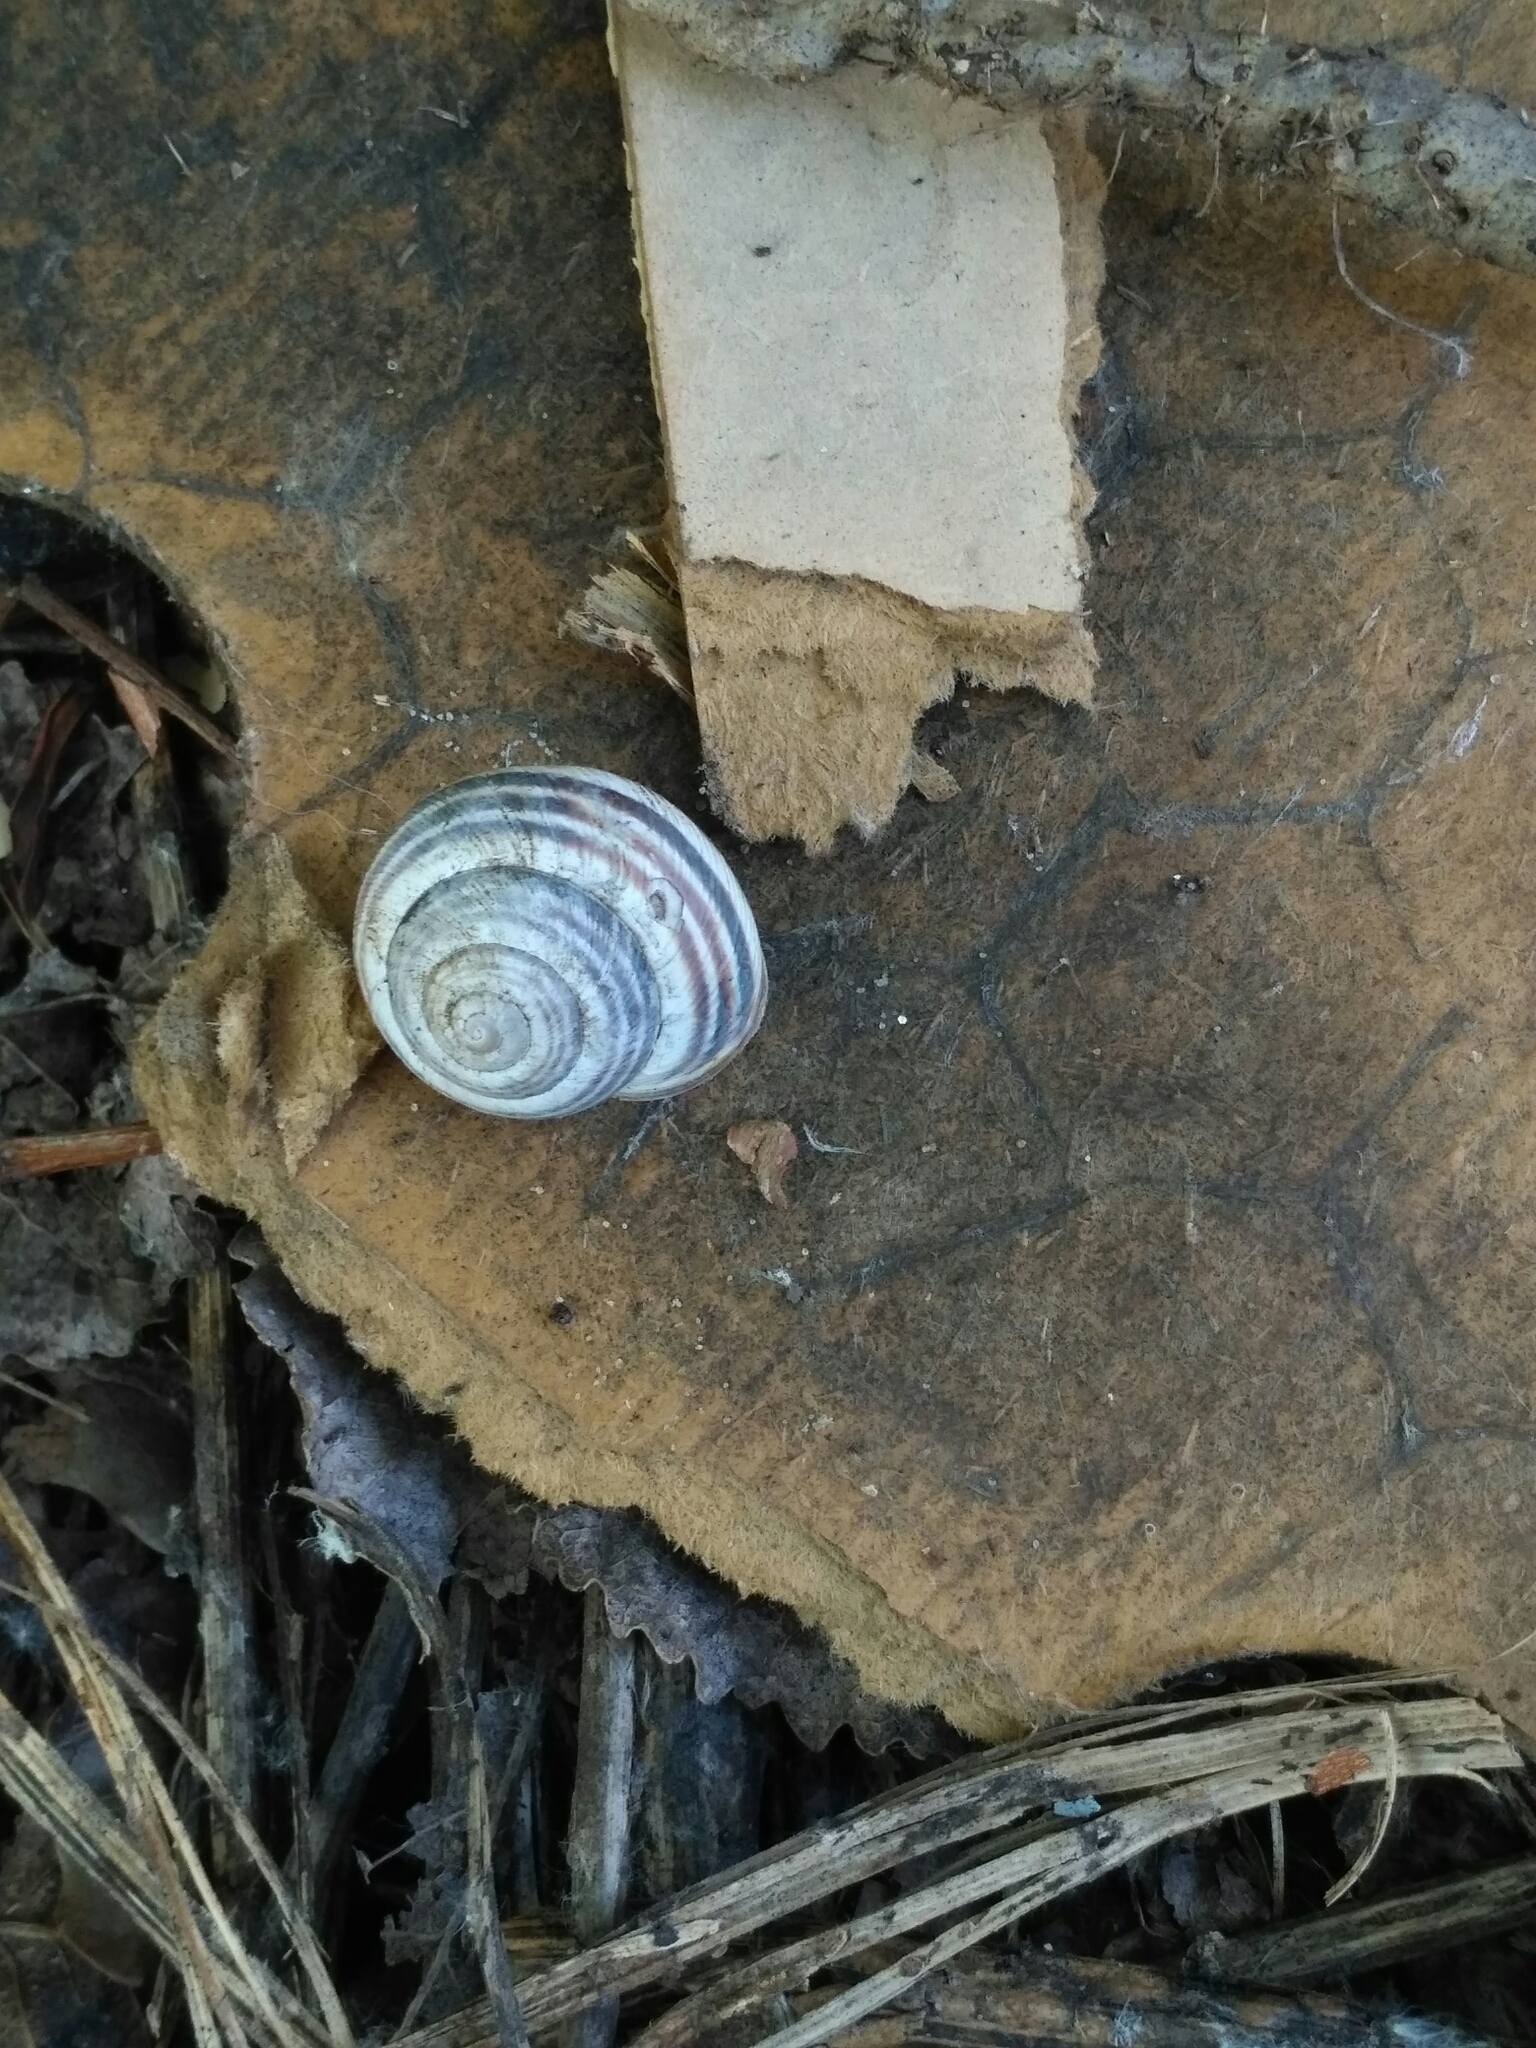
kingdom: Animalia
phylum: Mollusca
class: Gastropoda
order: Stylommatophora
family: Helicidae
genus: Caucasotachea
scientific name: Caucasotachea vindobonensis
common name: European helicid land snail
